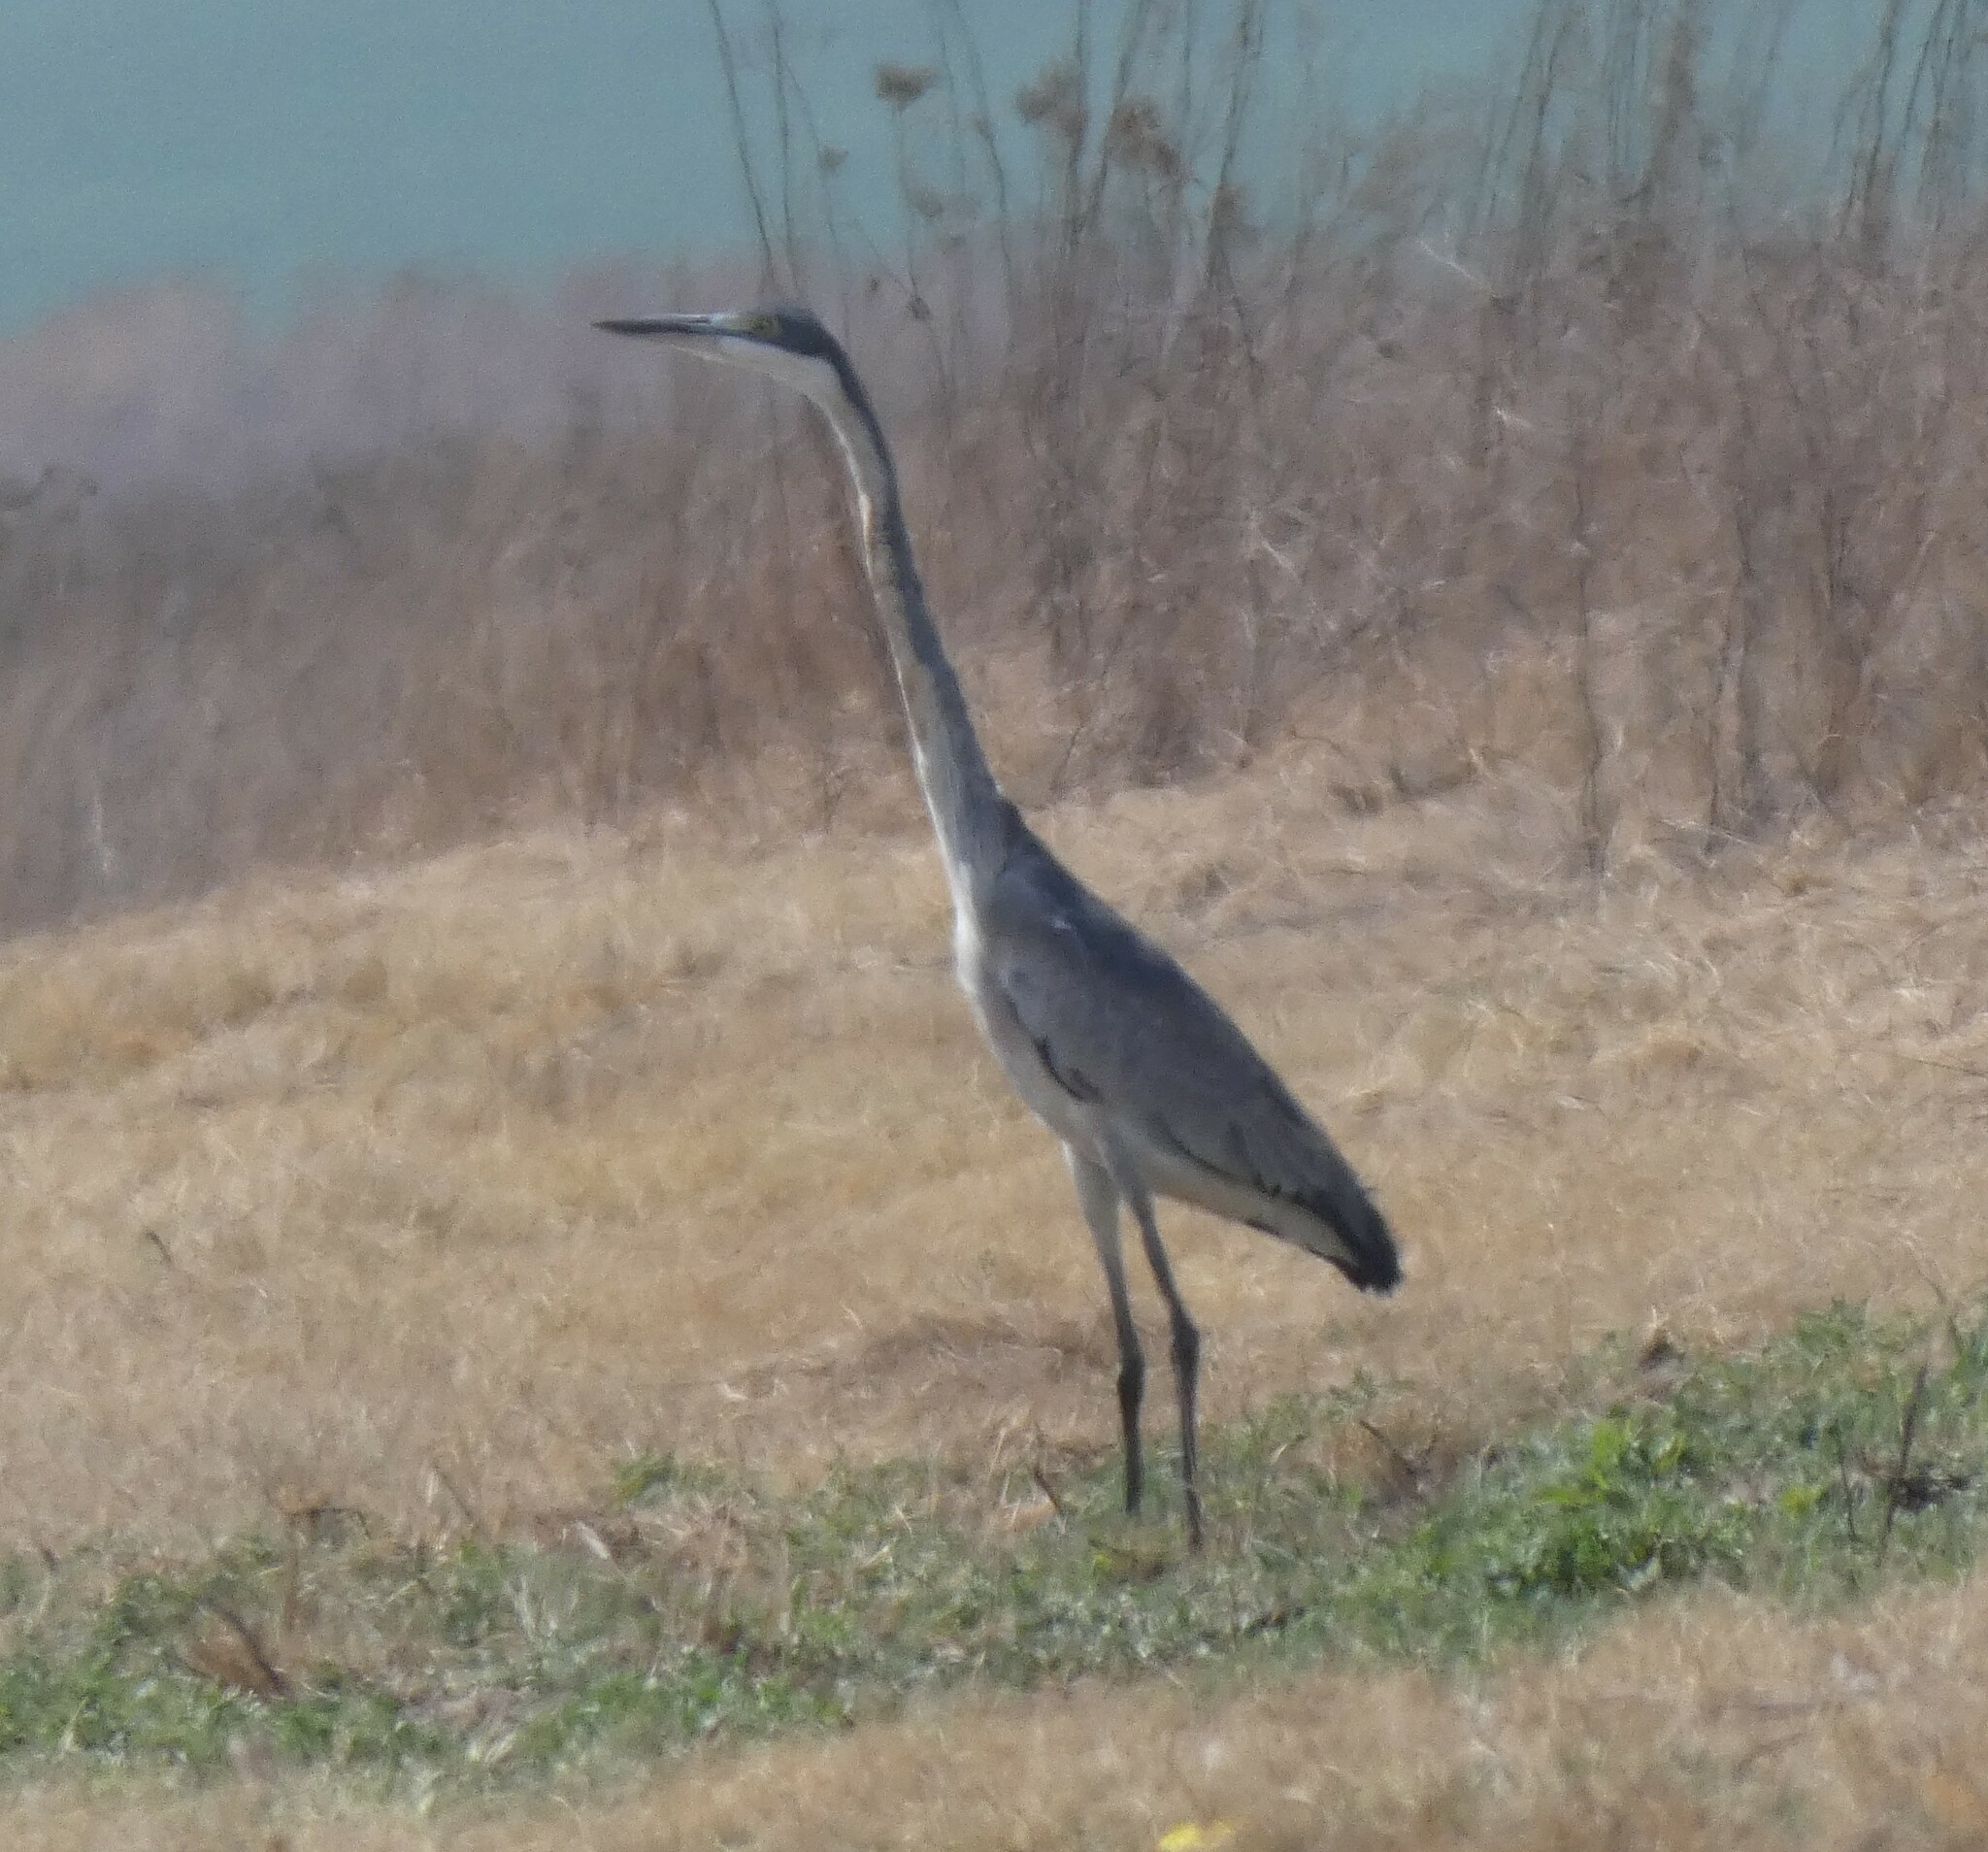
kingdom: Animalia
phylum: Chordata
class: Aves
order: Pelecaniformes
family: Ardeidae
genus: Ardea
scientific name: Ardea melanocephala
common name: Black-headed heron
